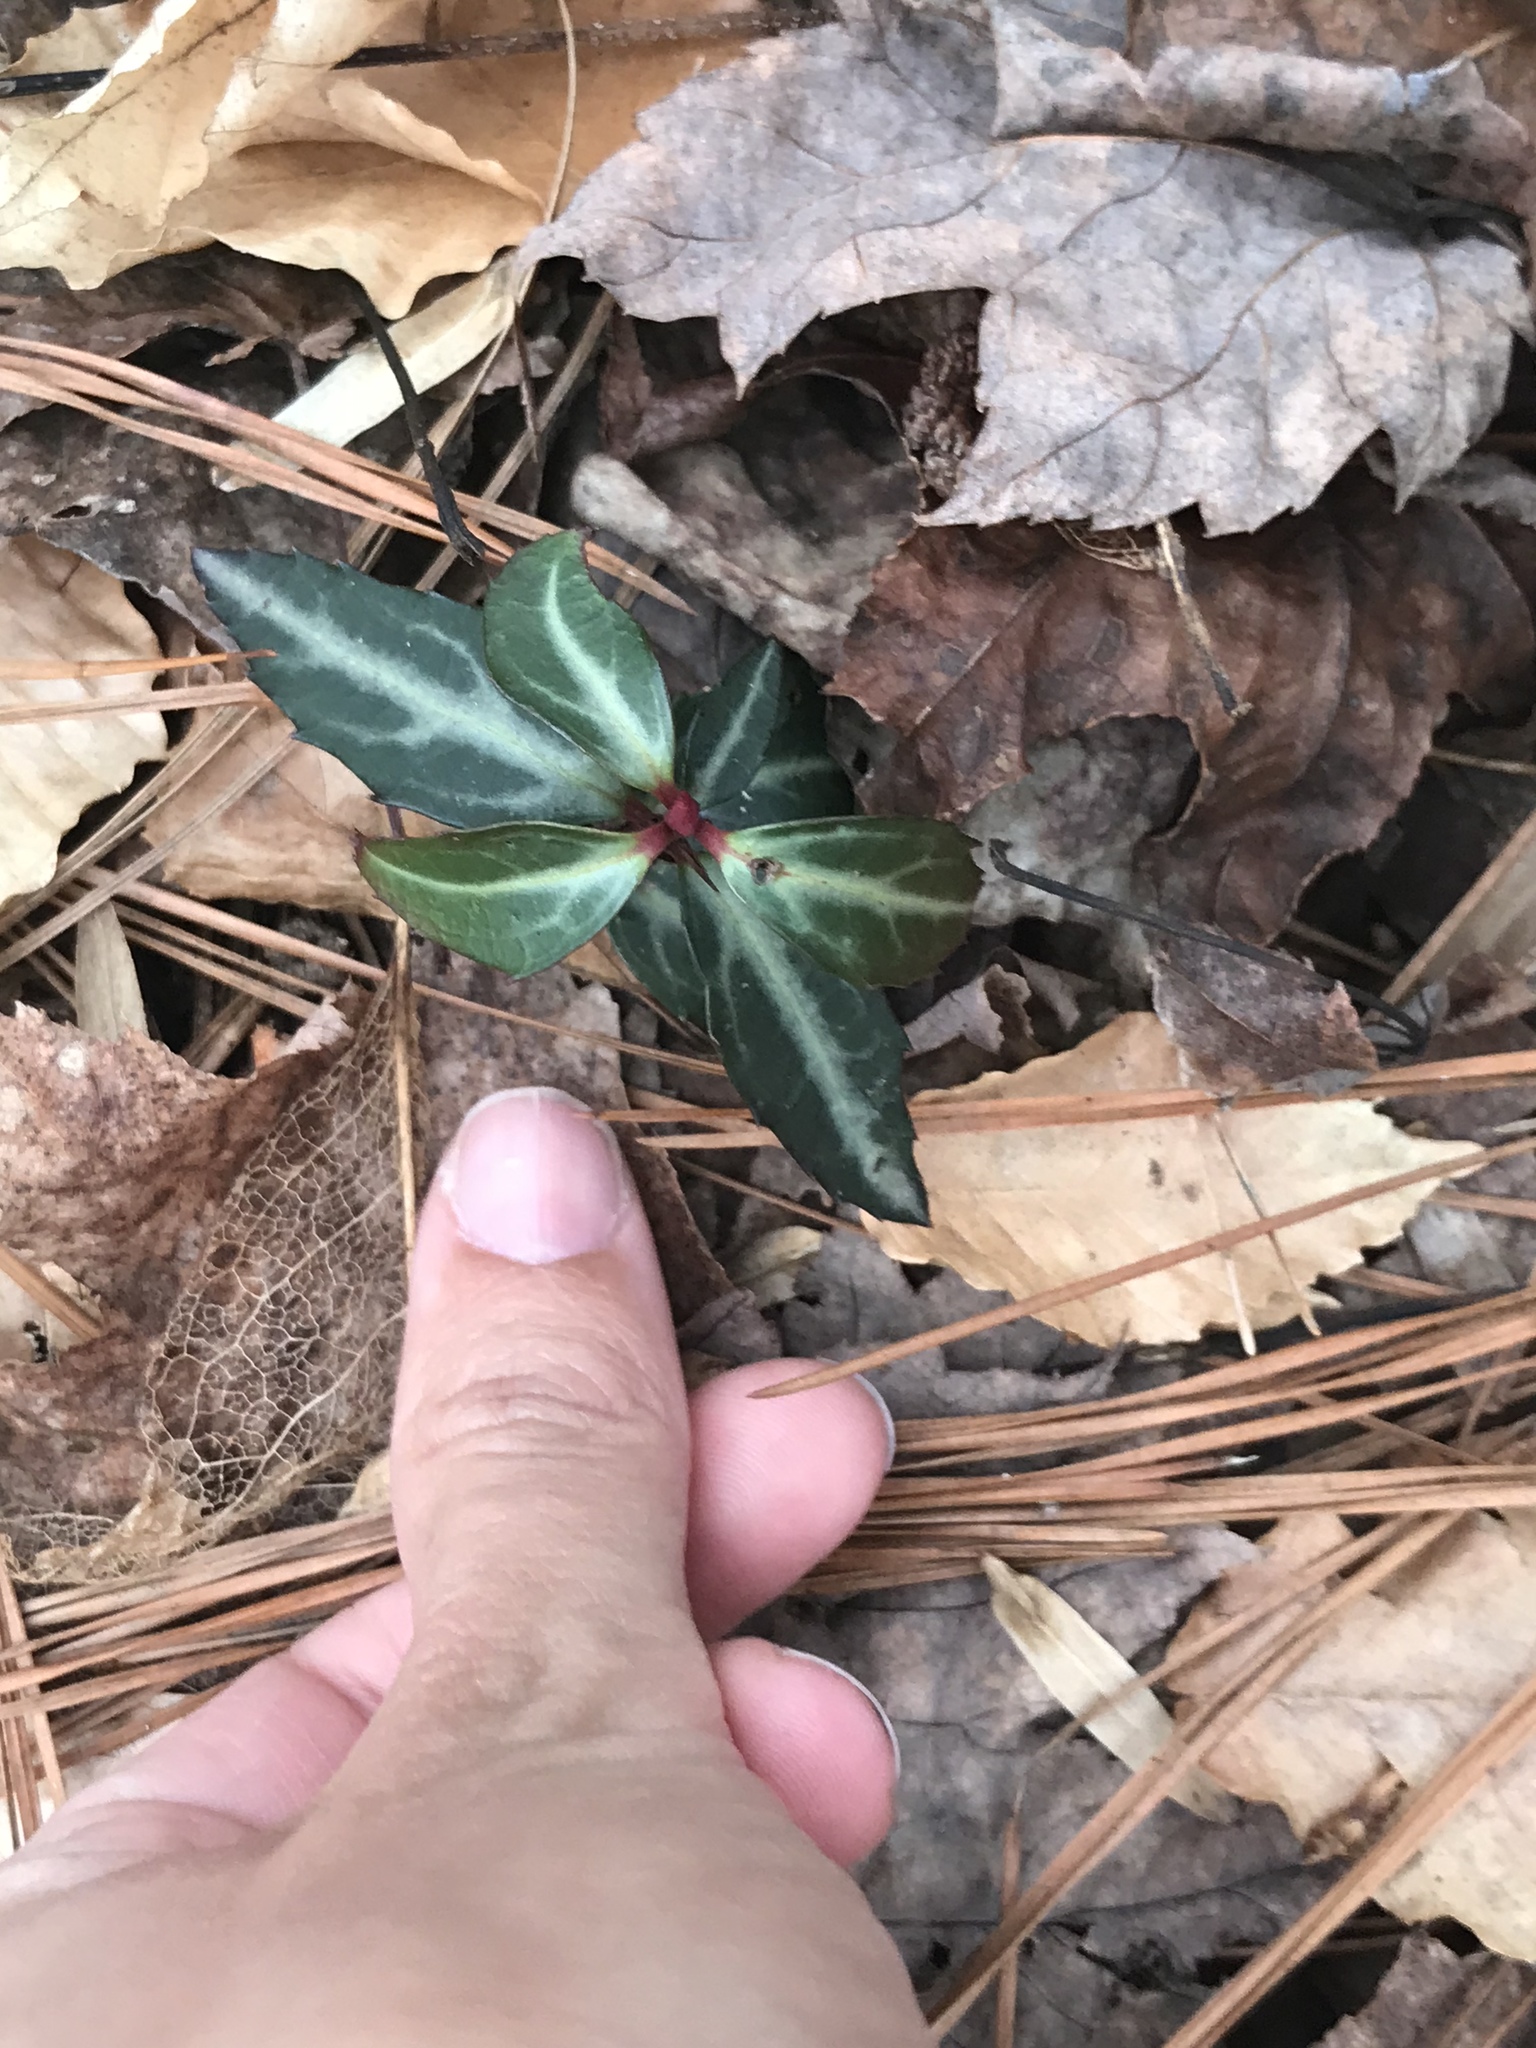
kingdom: Plantae
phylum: Tracheophyta
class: Magnoliopsida
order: Ericales
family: Ericaceae
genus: Chimaphila
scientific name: Chimaphila maculata
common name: Spotted pipsissewa
